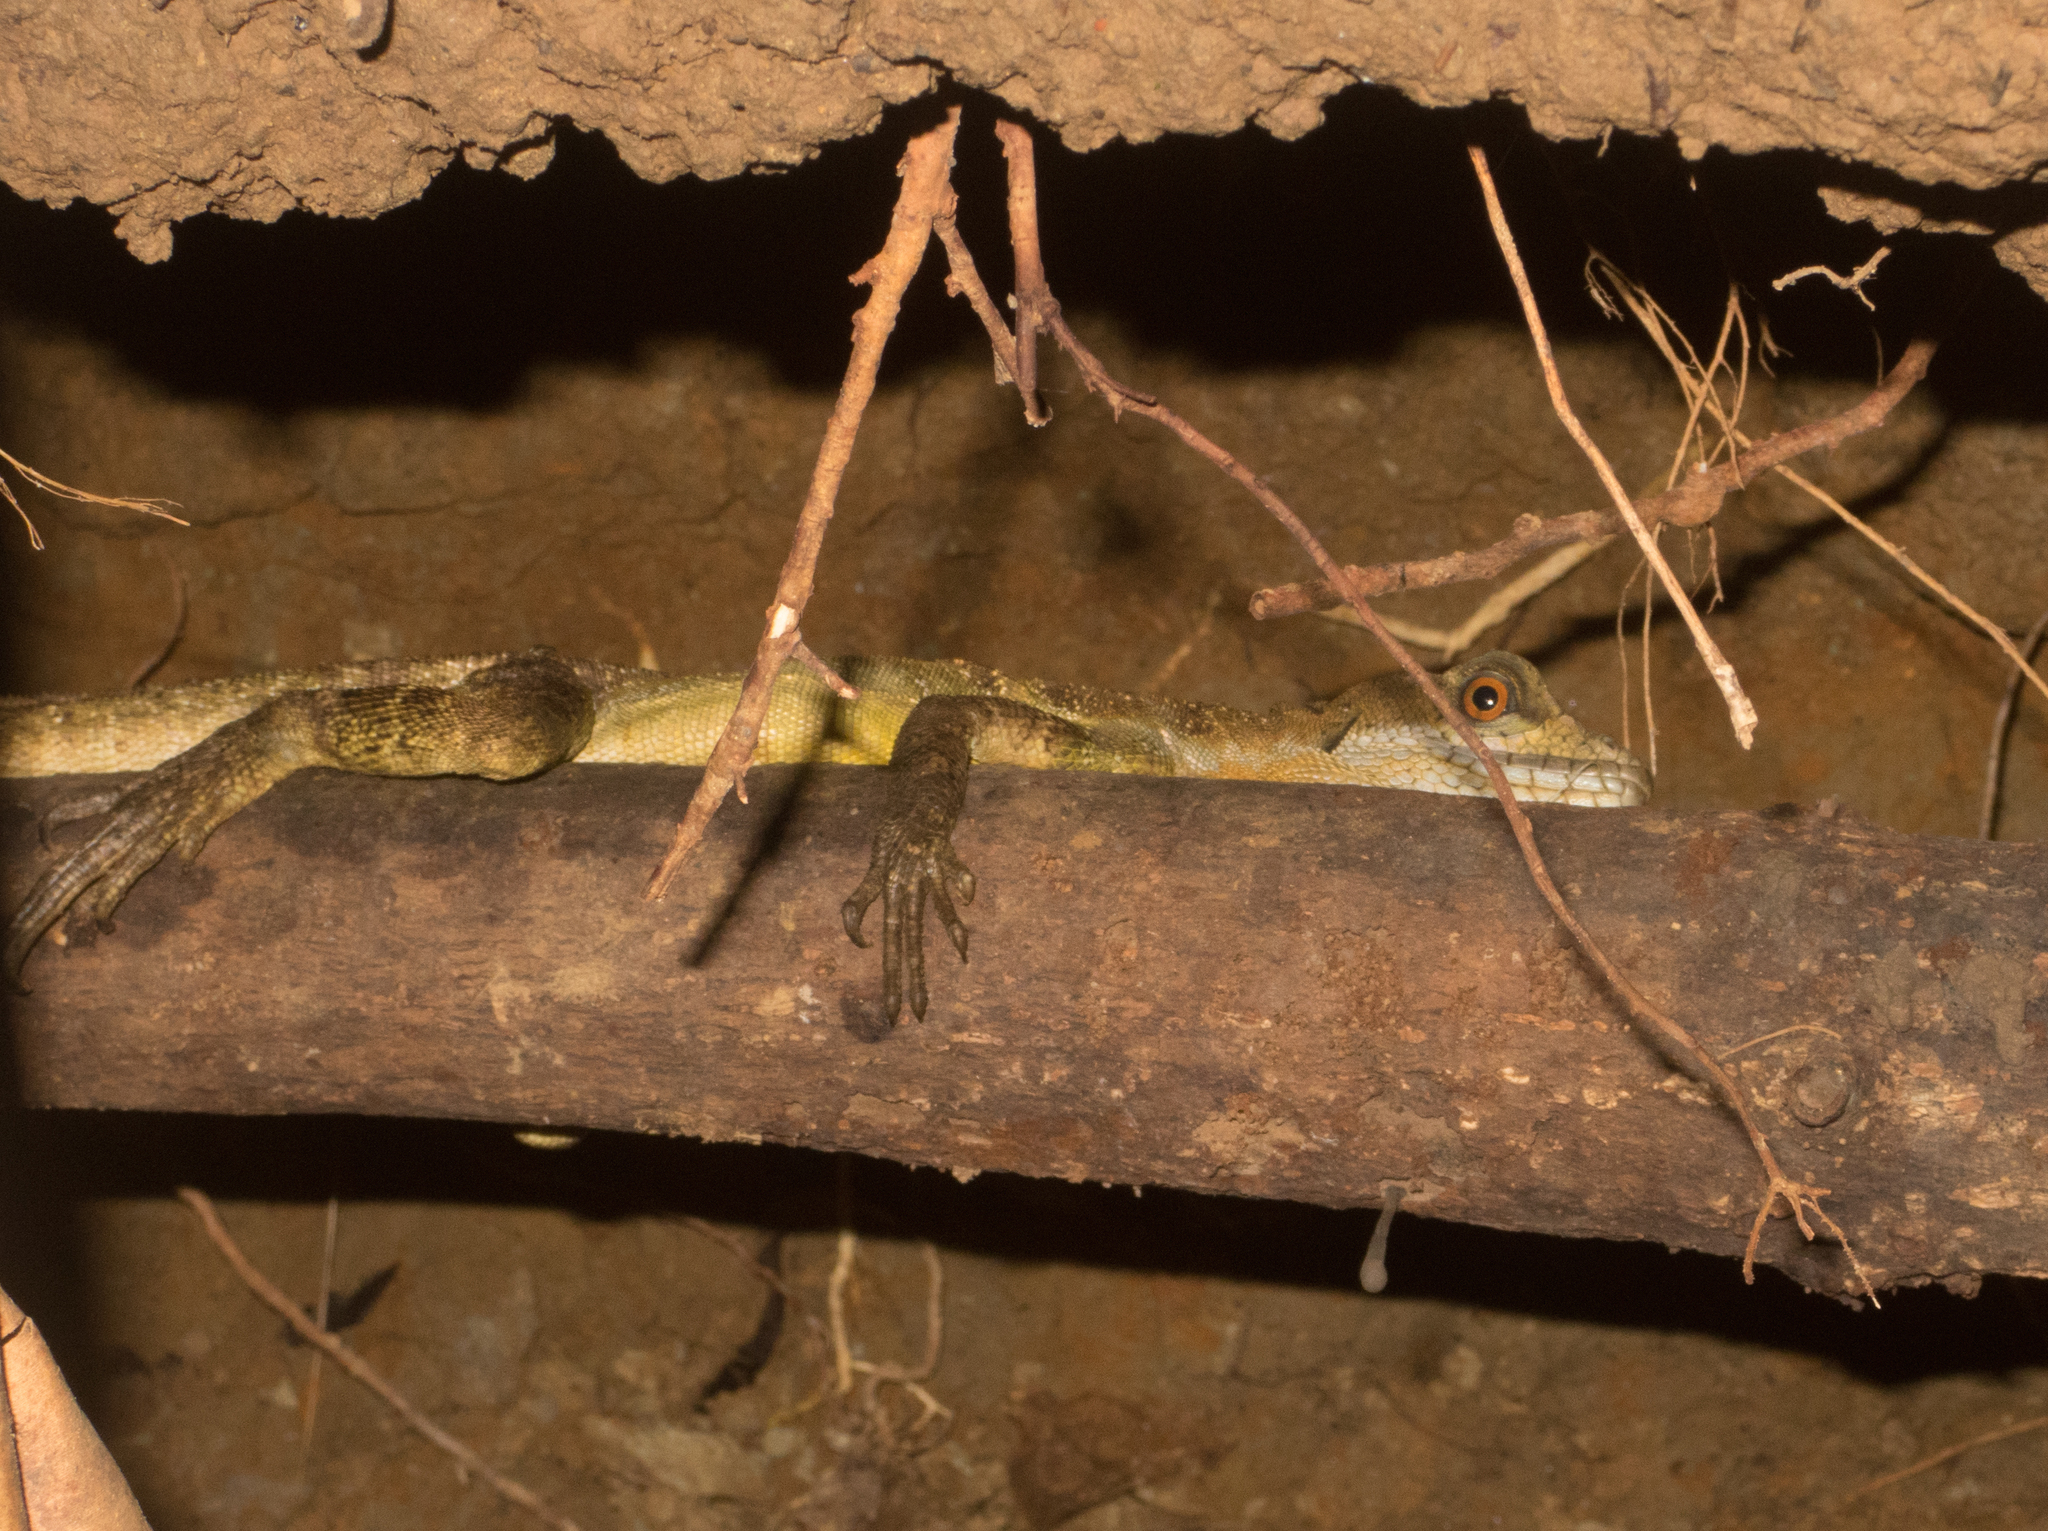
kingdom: Animalia
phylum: Chordata
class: Squamata
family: Corytophanidae
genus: Basiliscus
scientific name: Basiliscus basiliscus
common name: Common basilisk
